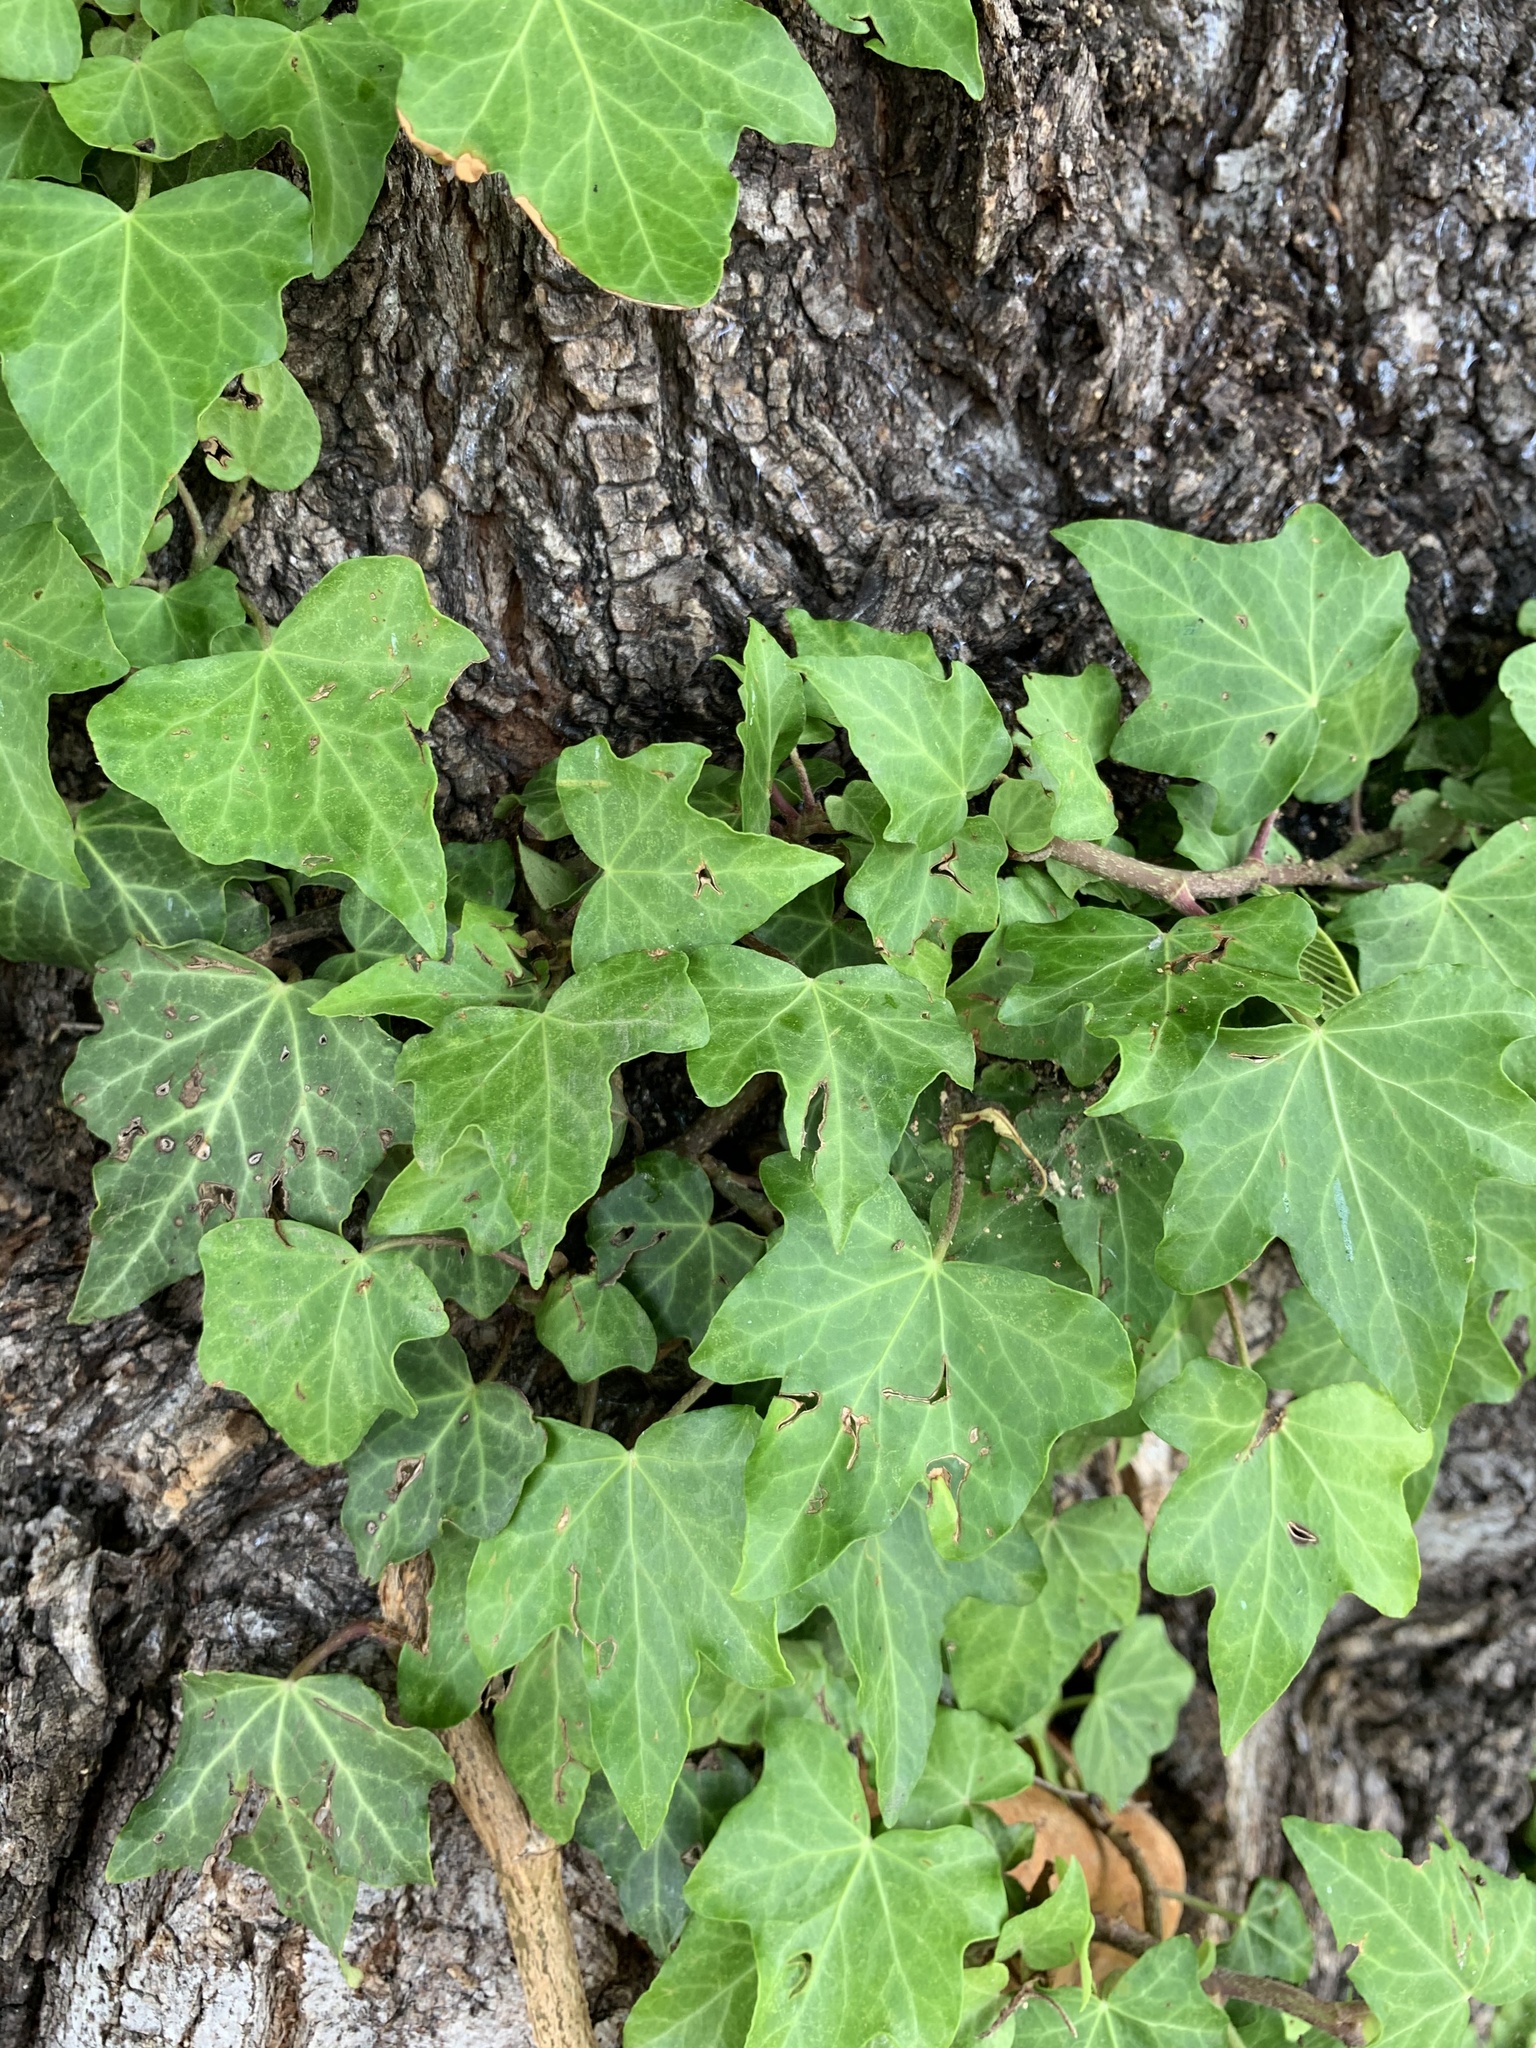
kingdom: Plantae
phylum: Tracheophyta
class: Magnoliopsida
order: Apiales
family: Araliaceae
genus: Hedera
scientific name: Hedera helix
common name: Ivy
